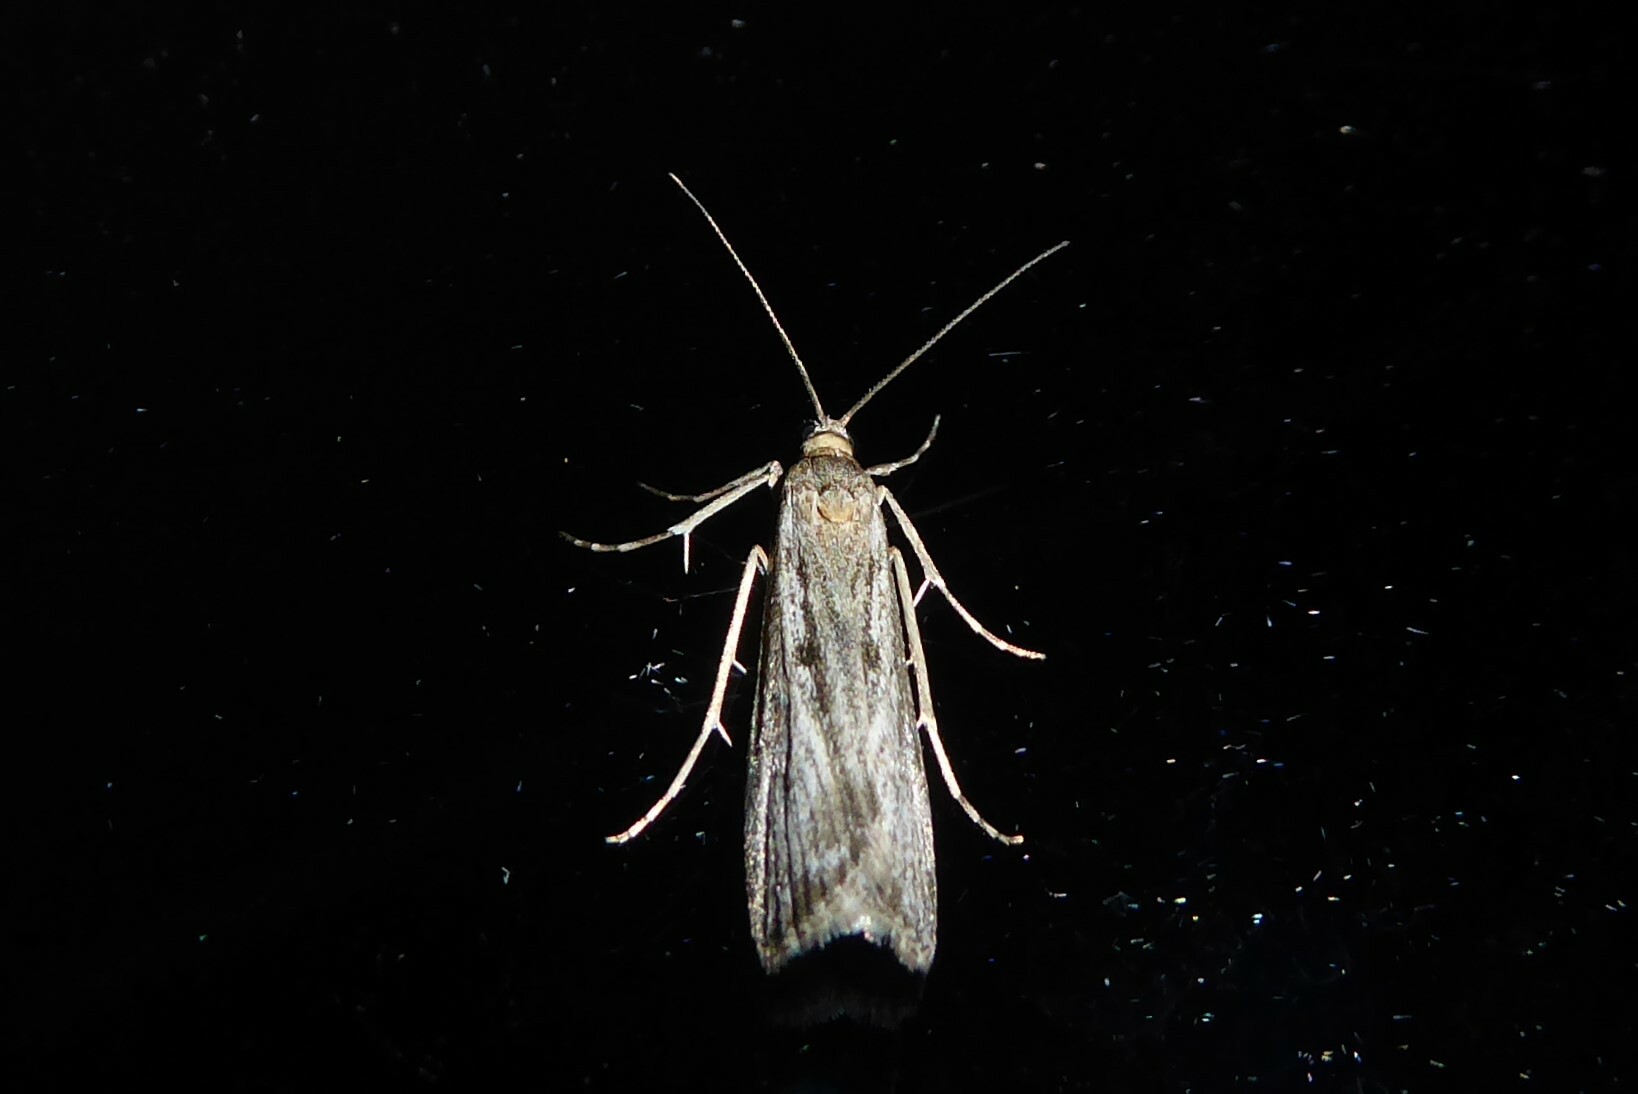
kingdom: Animalia
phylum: Arthropoda
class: Insecta
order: Lepidoptera
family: Crambidae
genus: Eudonia
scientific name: Eudonia leptalea
